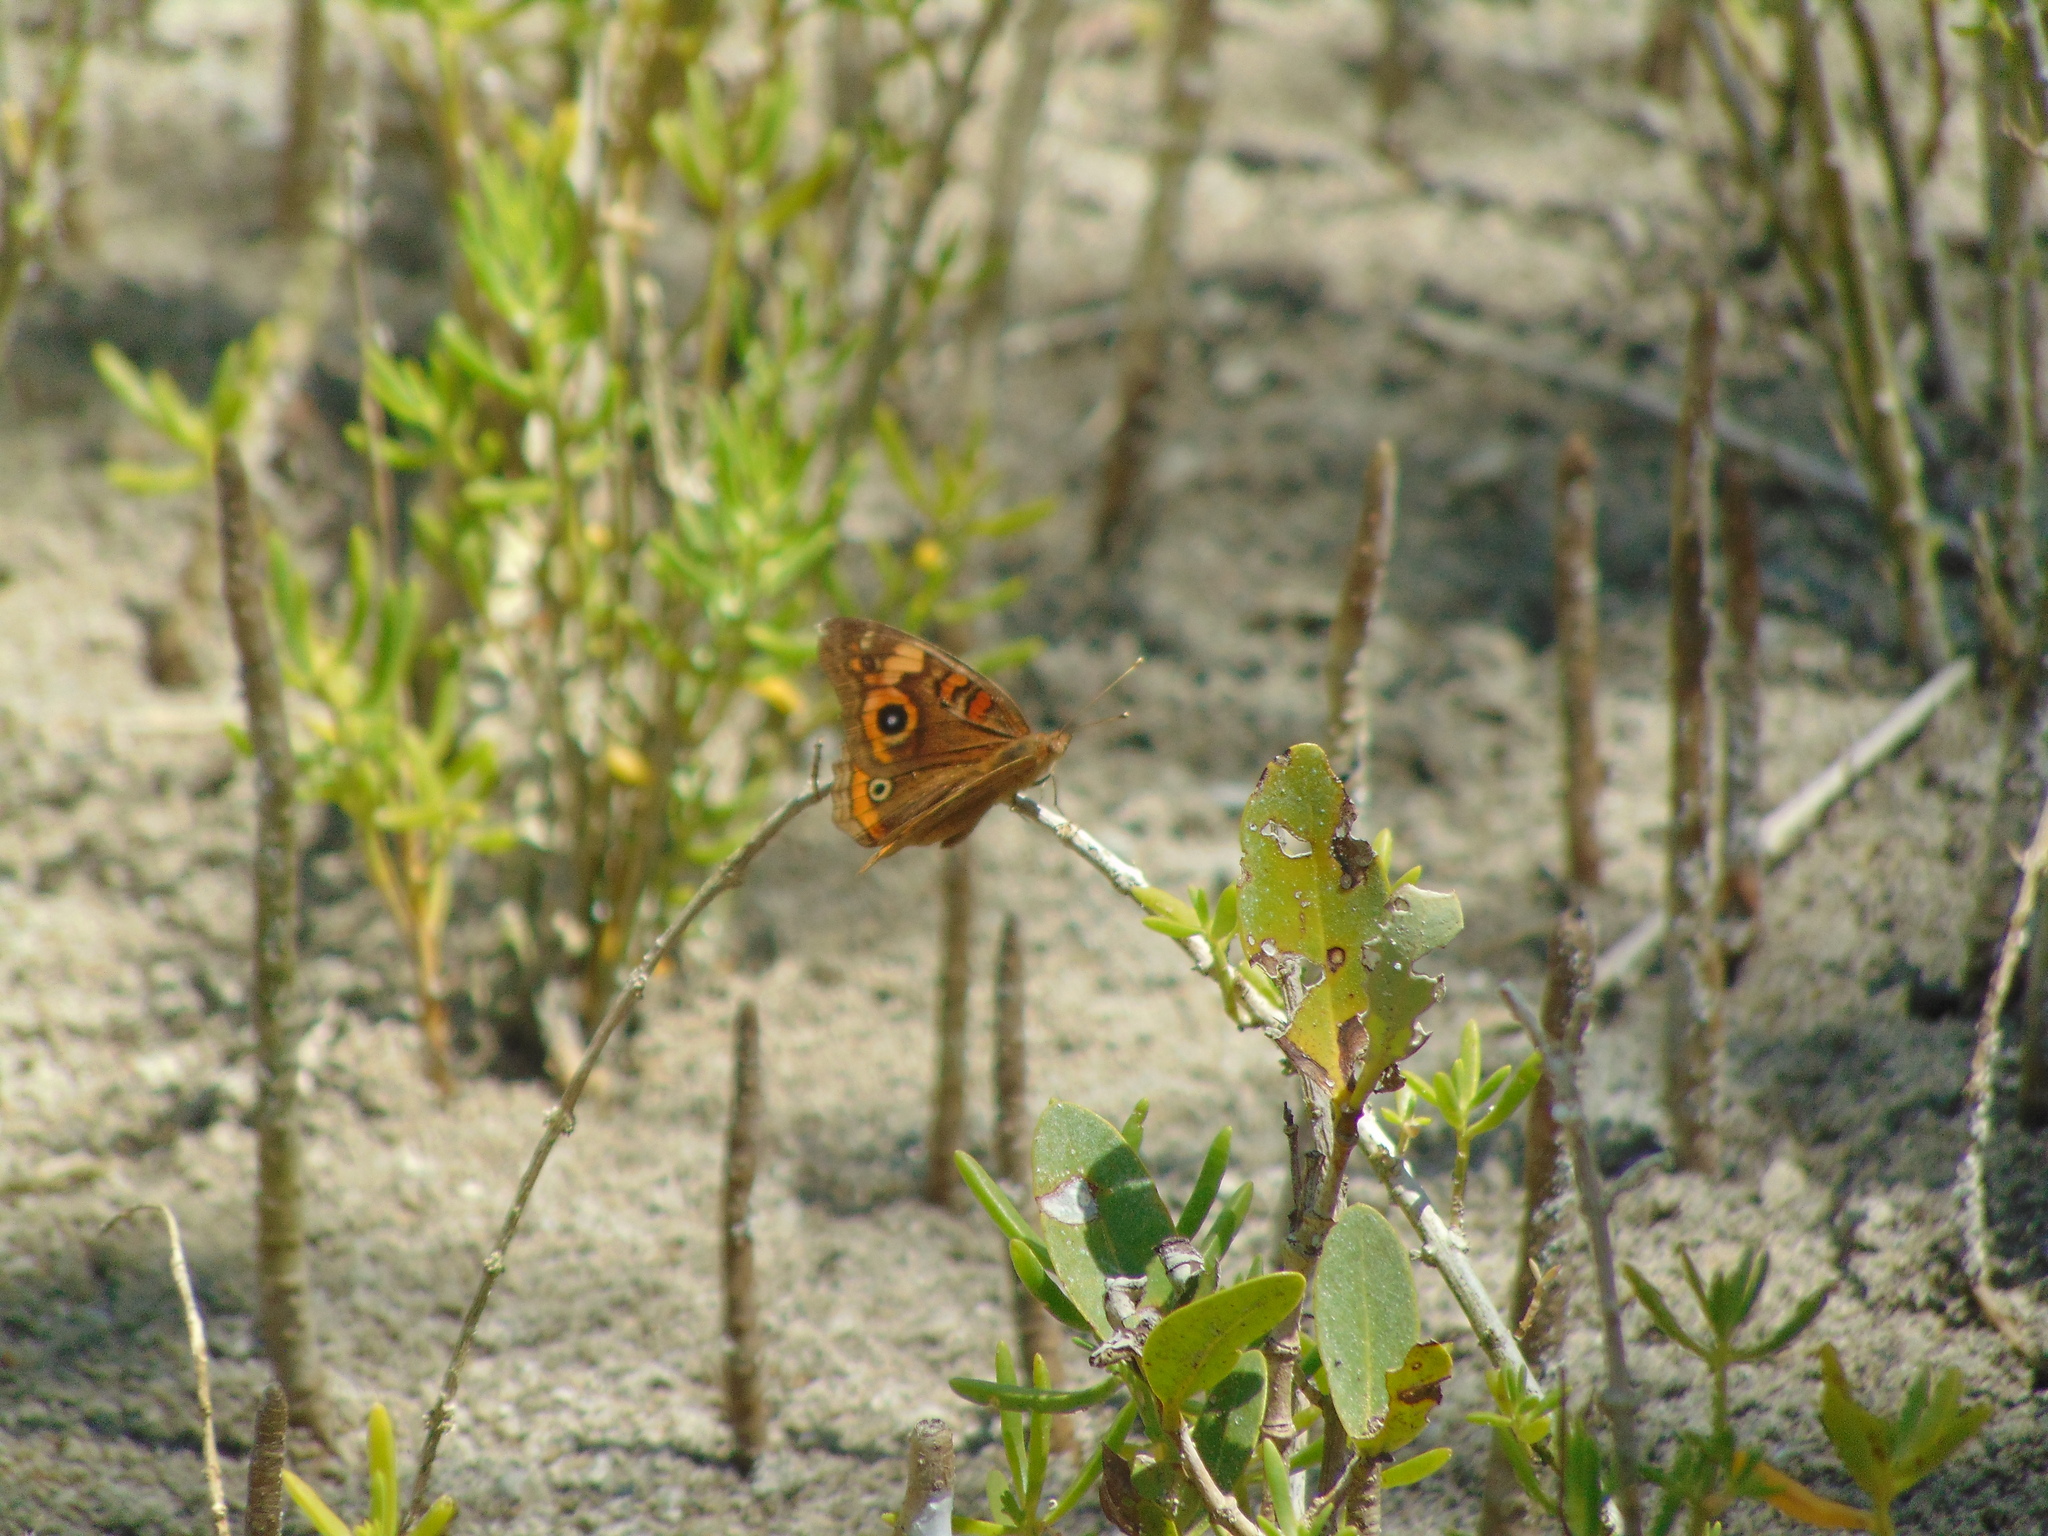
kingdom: Animalia
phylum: Arthropoda
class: Insecta
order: Lepidoptera
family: Nymphalidae
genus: Junonia
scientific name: Junonia neildi
